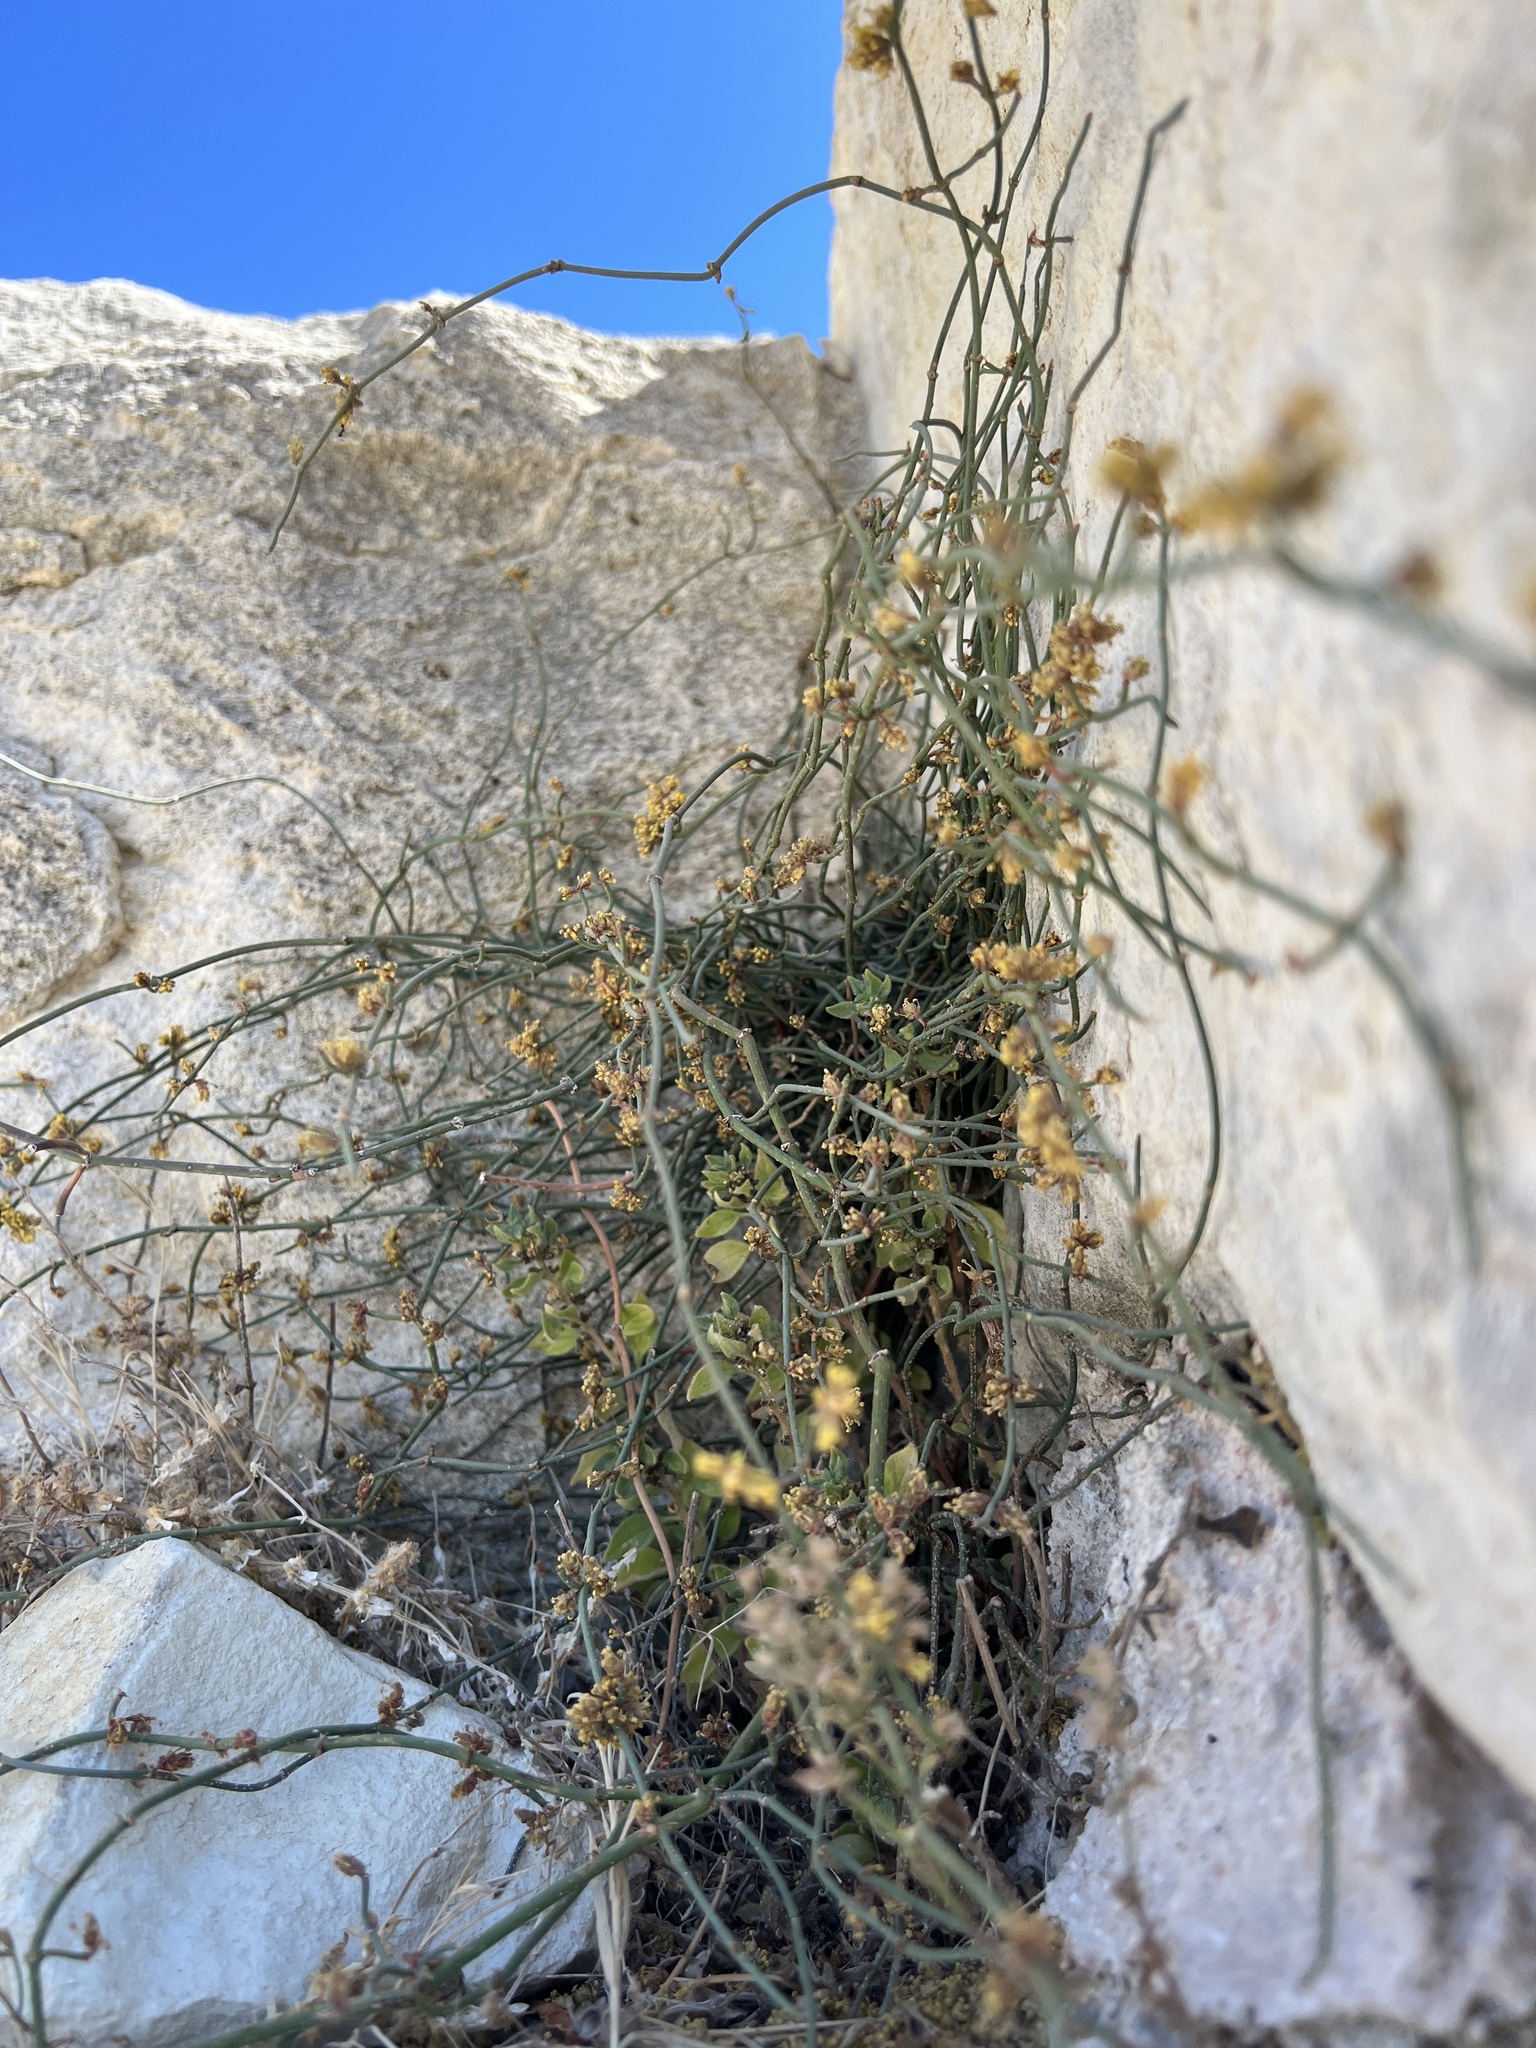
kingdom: Plantae
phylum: Tracheophyta
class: Gnetopsida
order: Ephedrales
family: Ephedraceae
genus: Ephedra
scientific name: Ephedra foeminea
